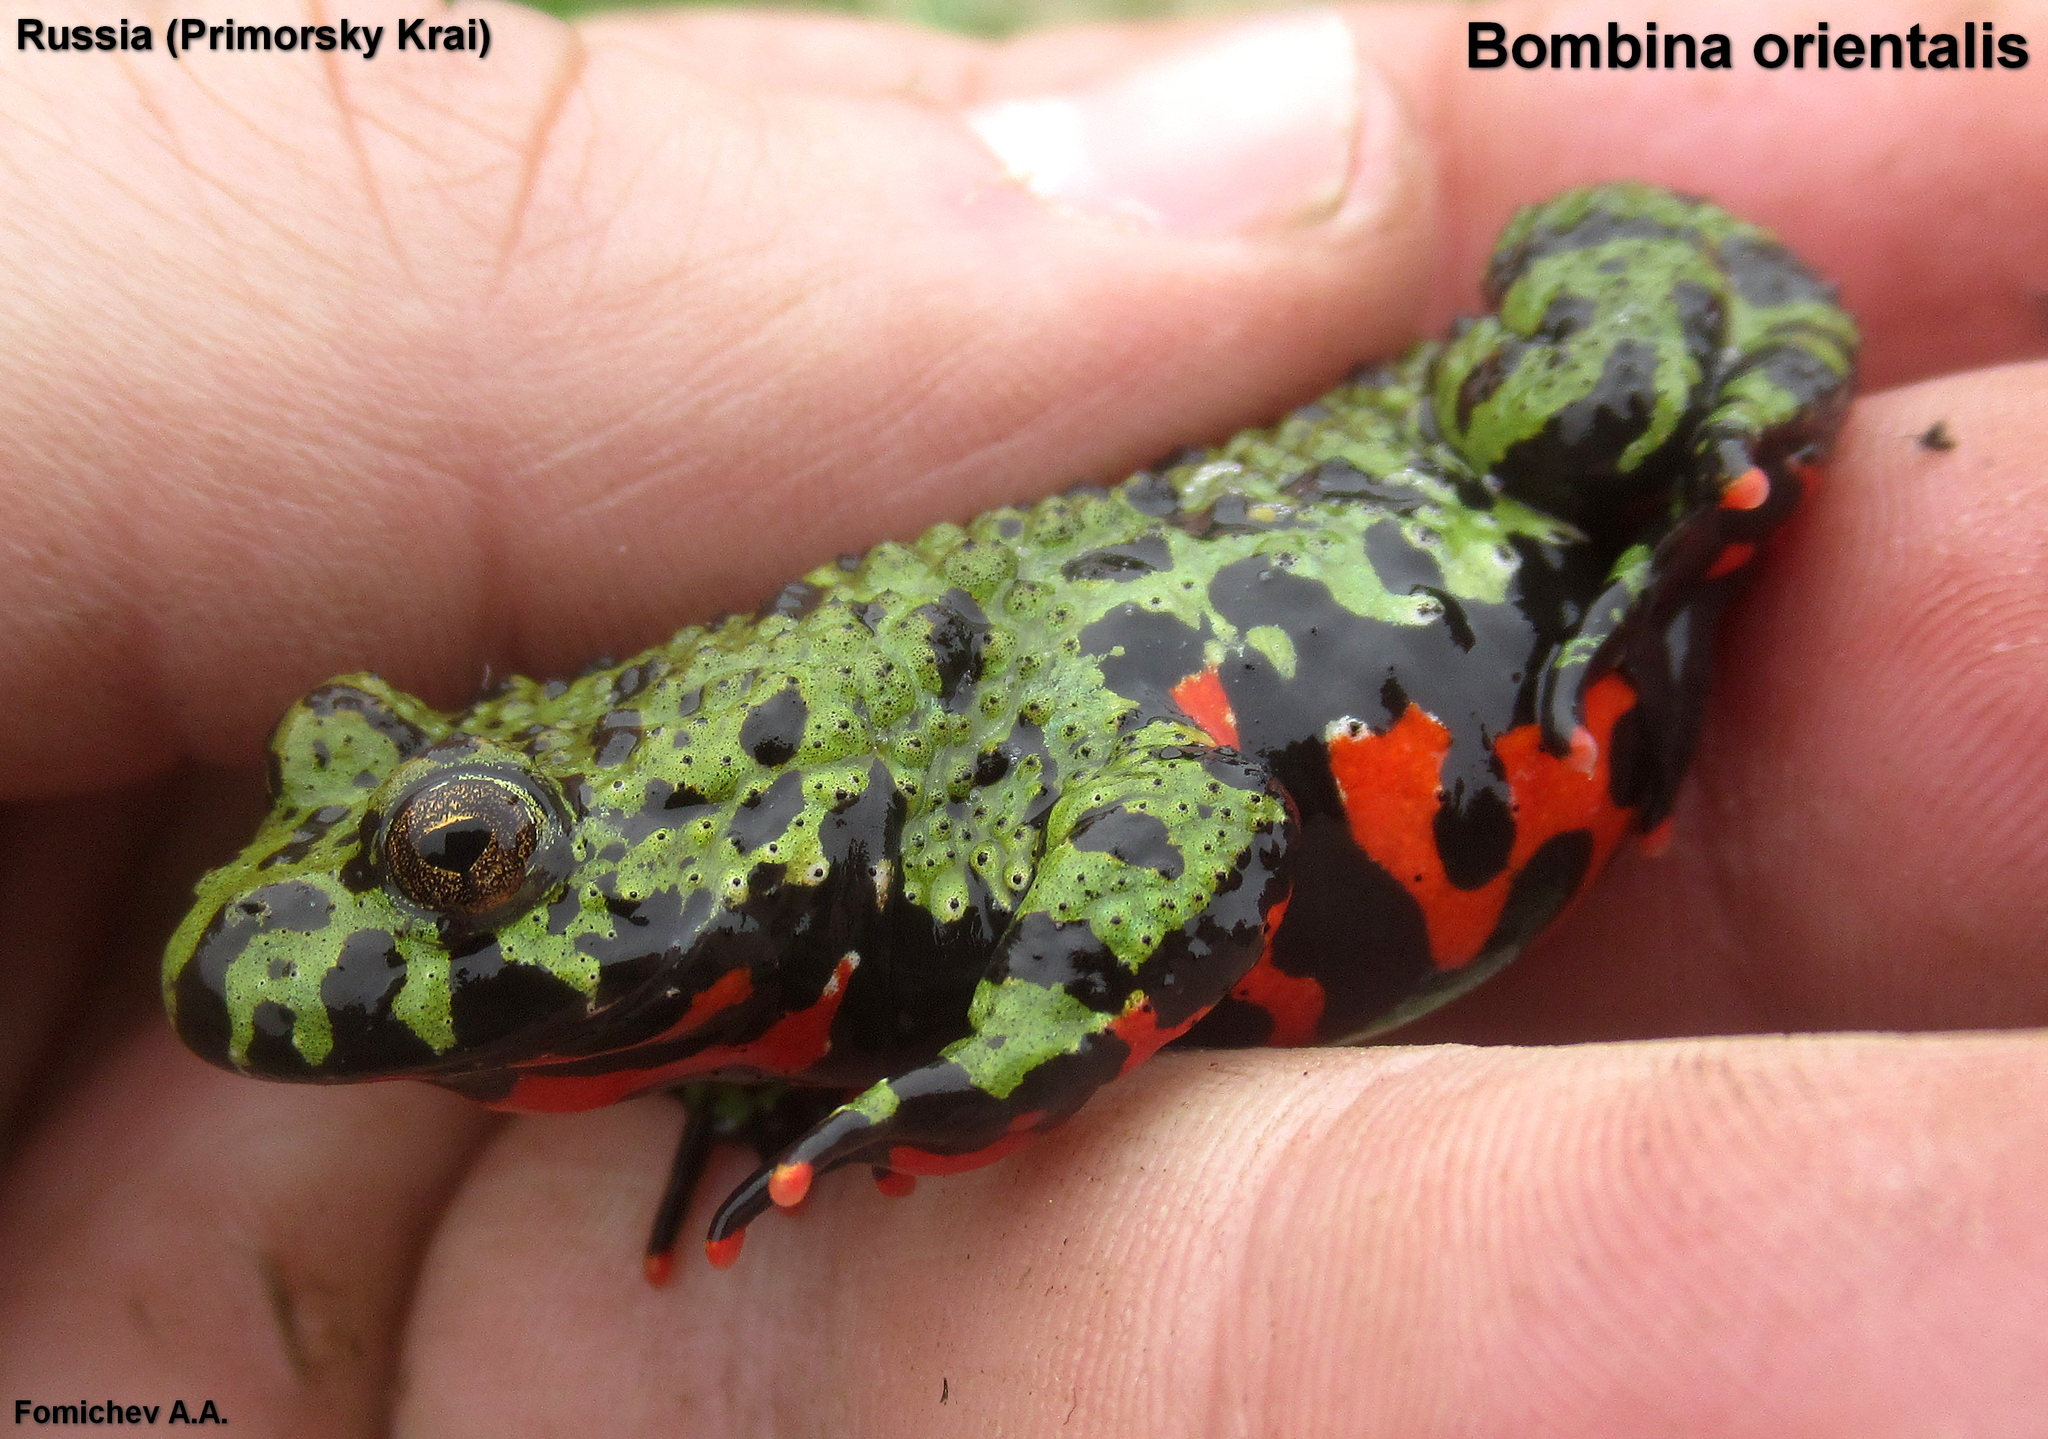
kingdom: Animalia
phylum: Chordata
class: Amphibia
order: Anura
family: Bombinatoridae
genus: Bombina
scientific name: Bombina orientalis
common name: Oriental firebelly toad
